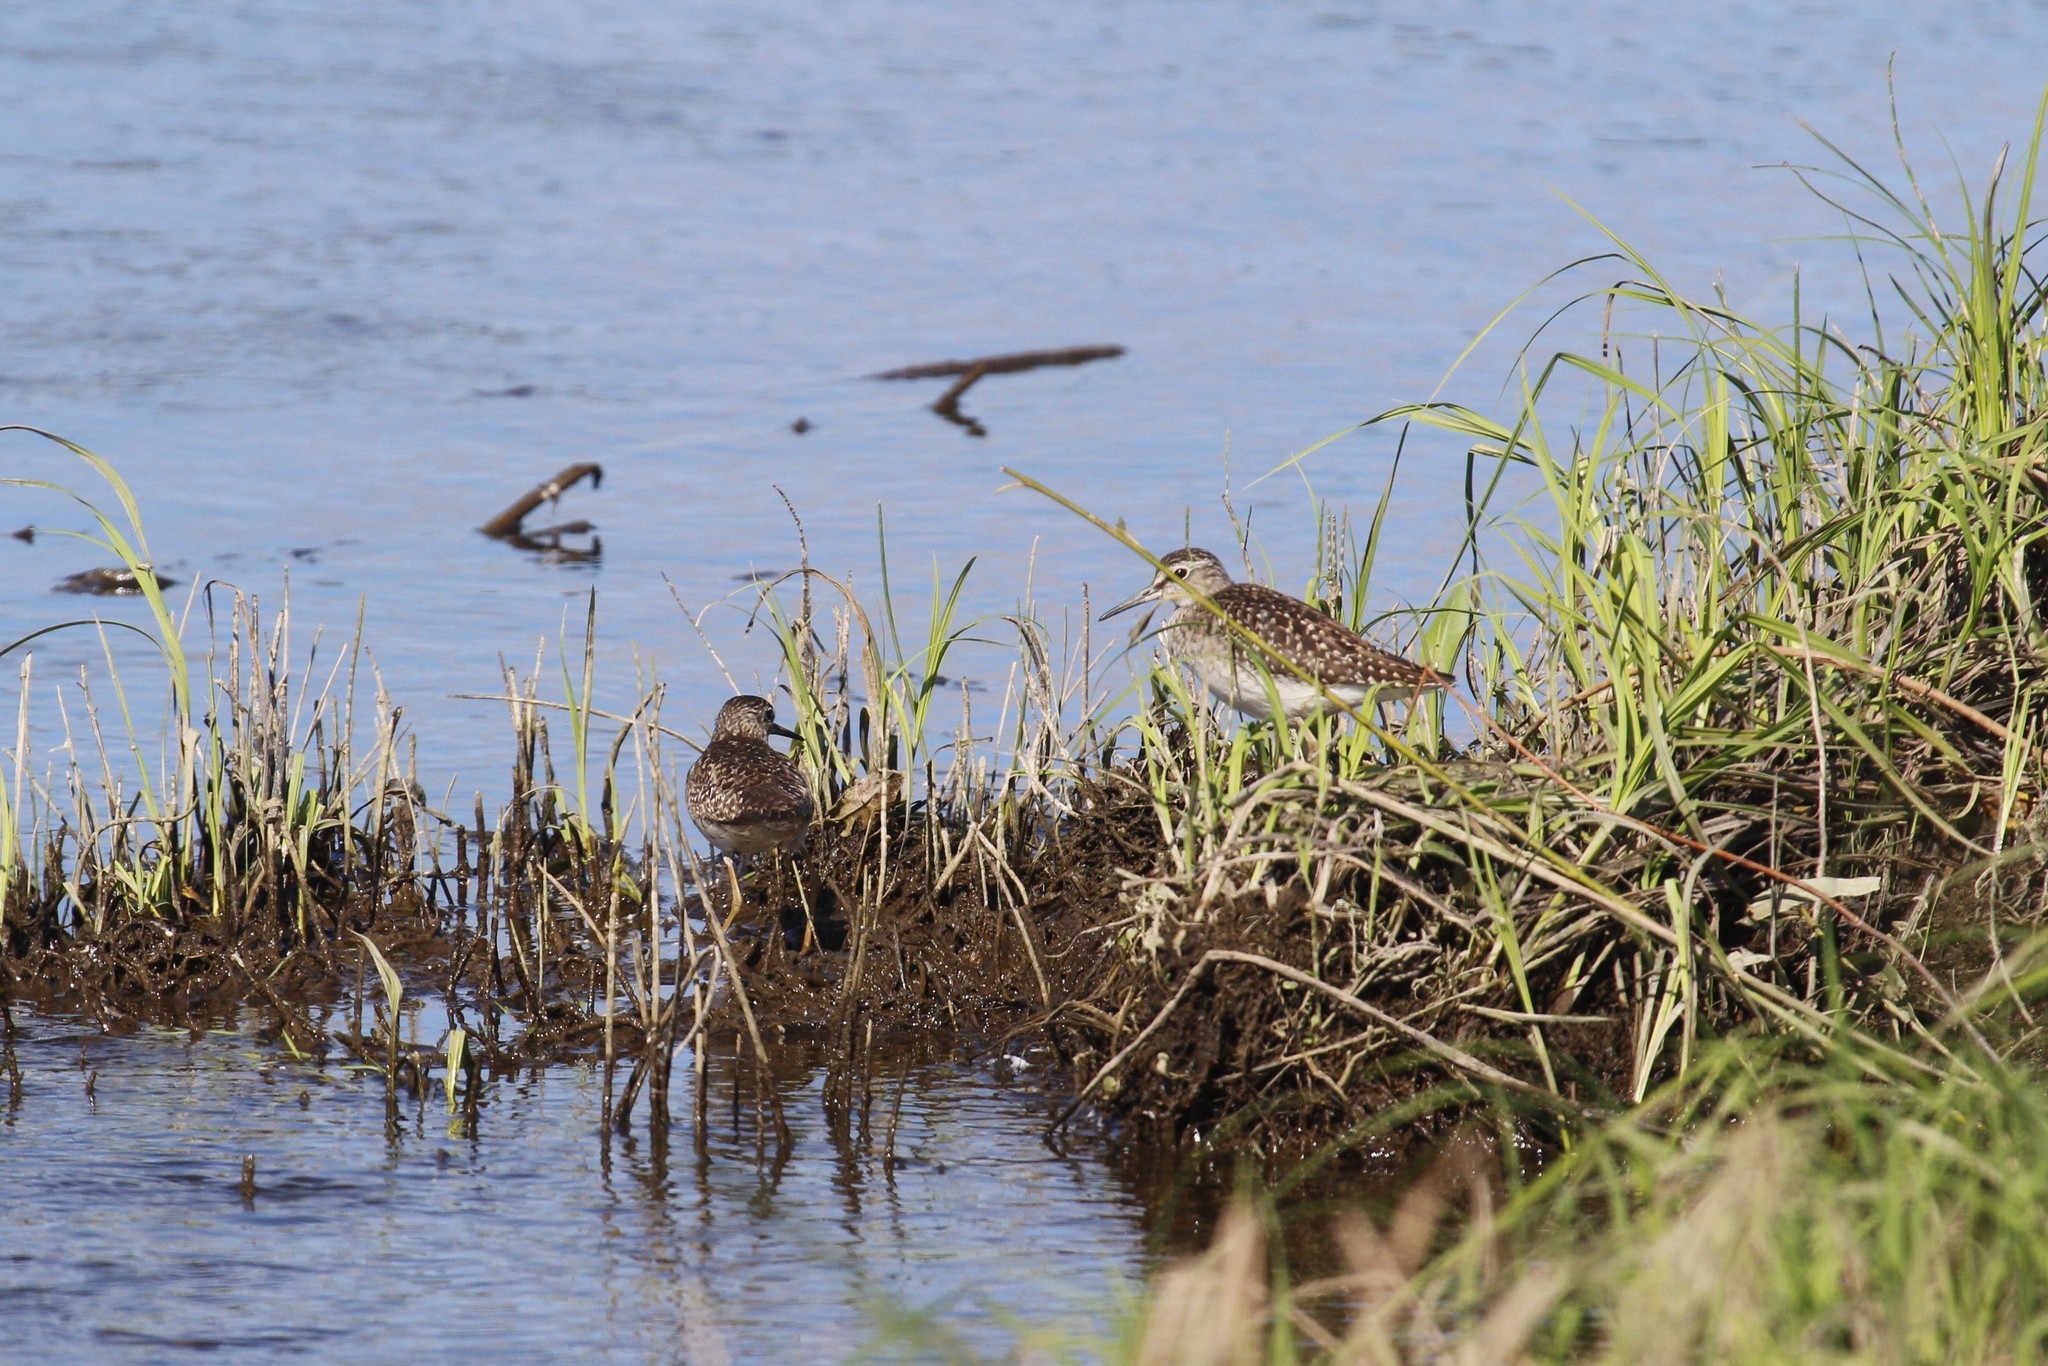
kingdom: Animalia
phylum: Chordata
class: Aves
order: Charadriiformes
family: Scolopacidae
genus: Tringa
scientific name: Tringa glareola
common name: Wood sandpiper
